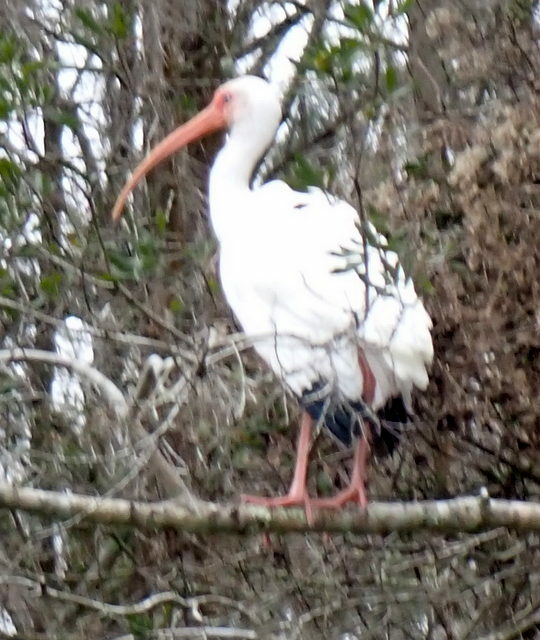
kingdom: Animalia
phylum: Chordata
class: Aves
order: Pelecaniformes
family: Threskiornithidae
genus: Eudocimus
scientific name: Eudocimus albus
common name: White ibis
